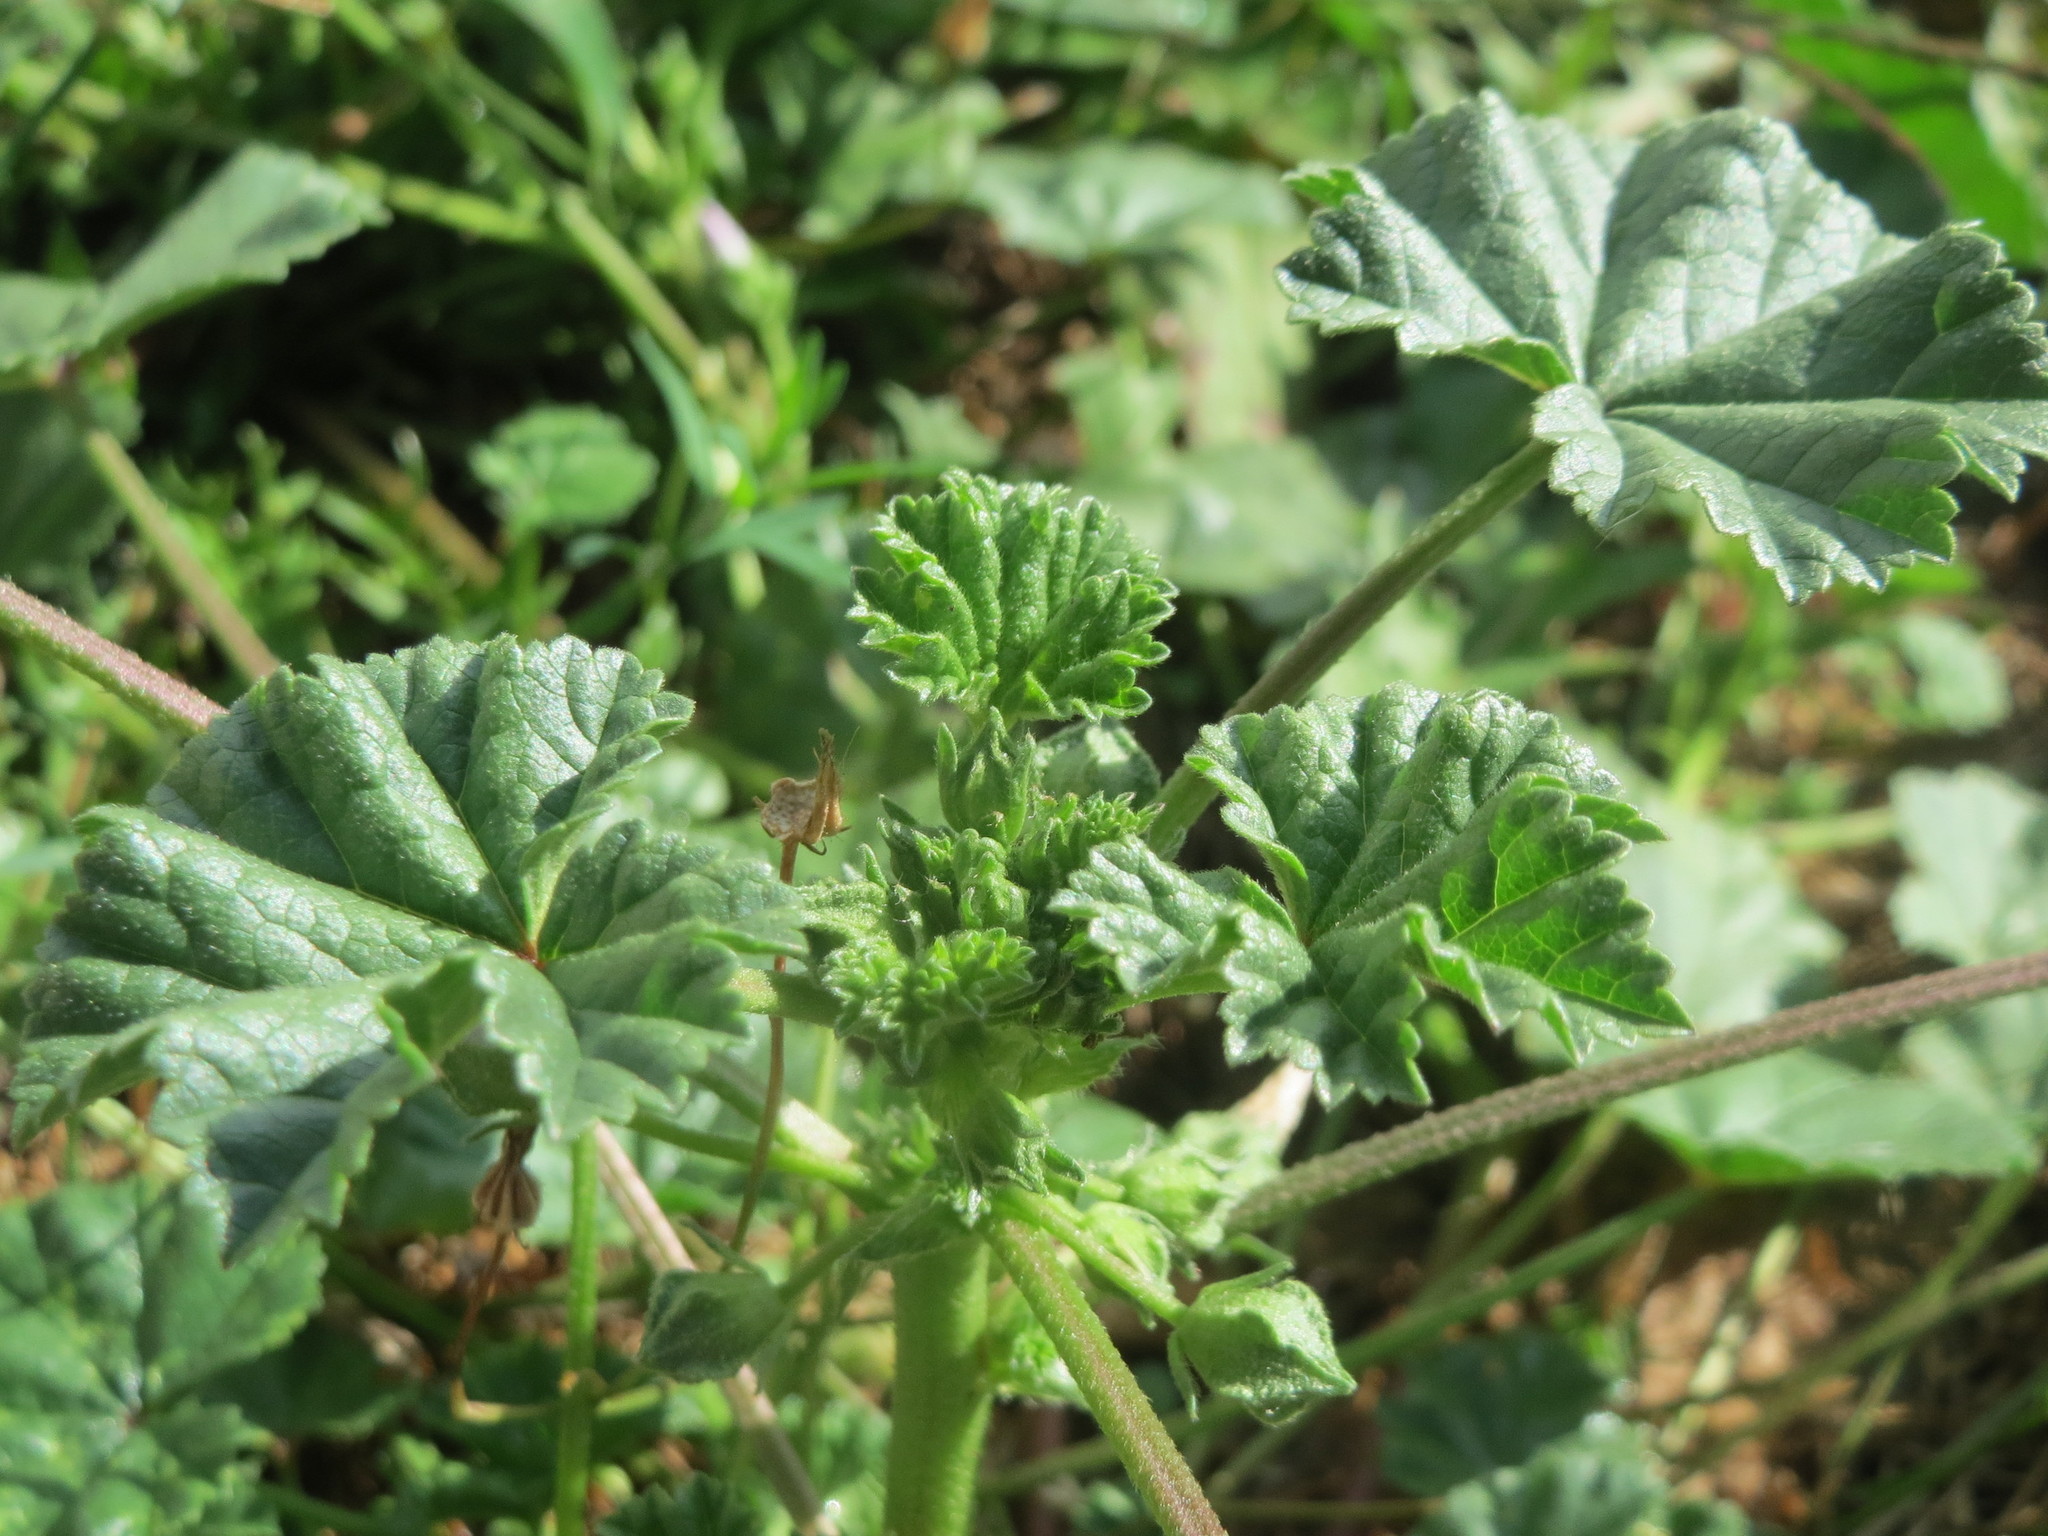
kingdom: Plantae
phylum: Tracheophyta
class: Magnoliopsida
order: Malvales
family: Malvaceae
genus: Malva
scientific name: Malva neglecta
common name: Common mallow
